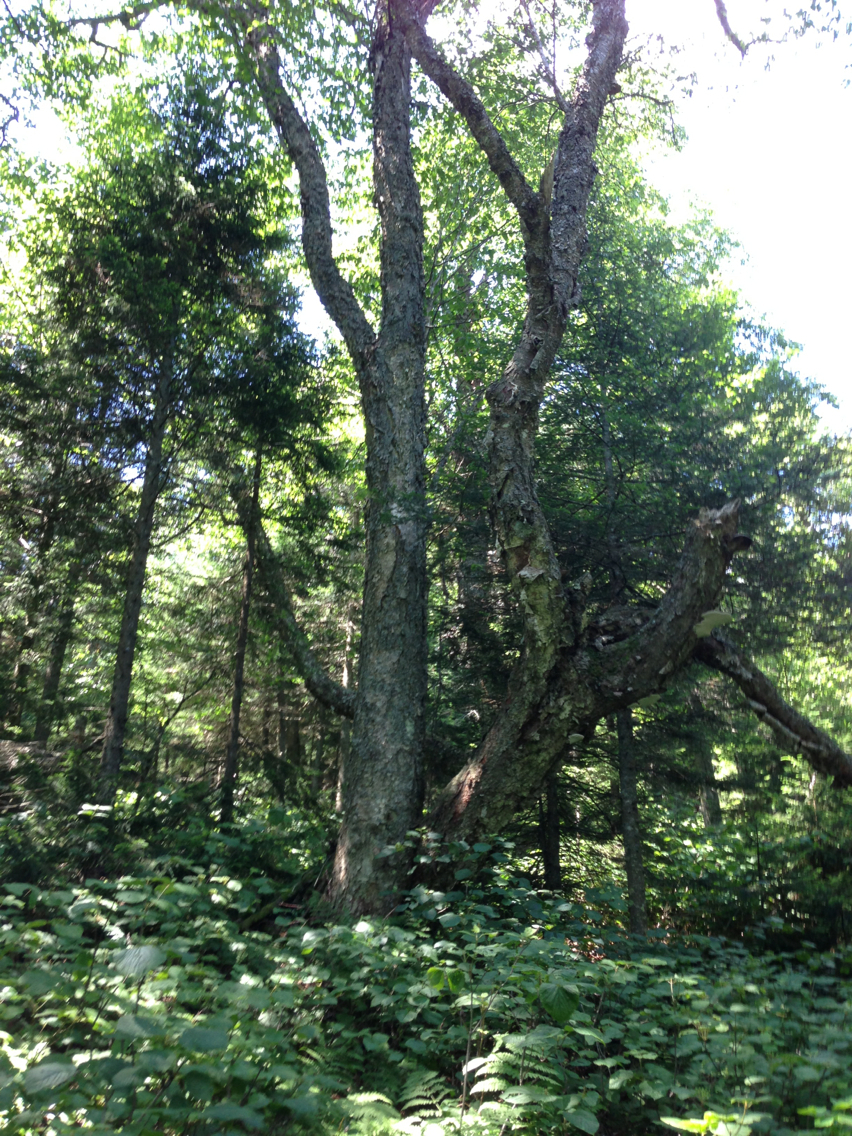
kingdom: Plantae
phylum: Tracheophyta
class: Magnoliopsida
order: Fagales
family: Betulaceae
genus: Betula
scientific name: Betula alleghaniensis
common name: Yellow birch
